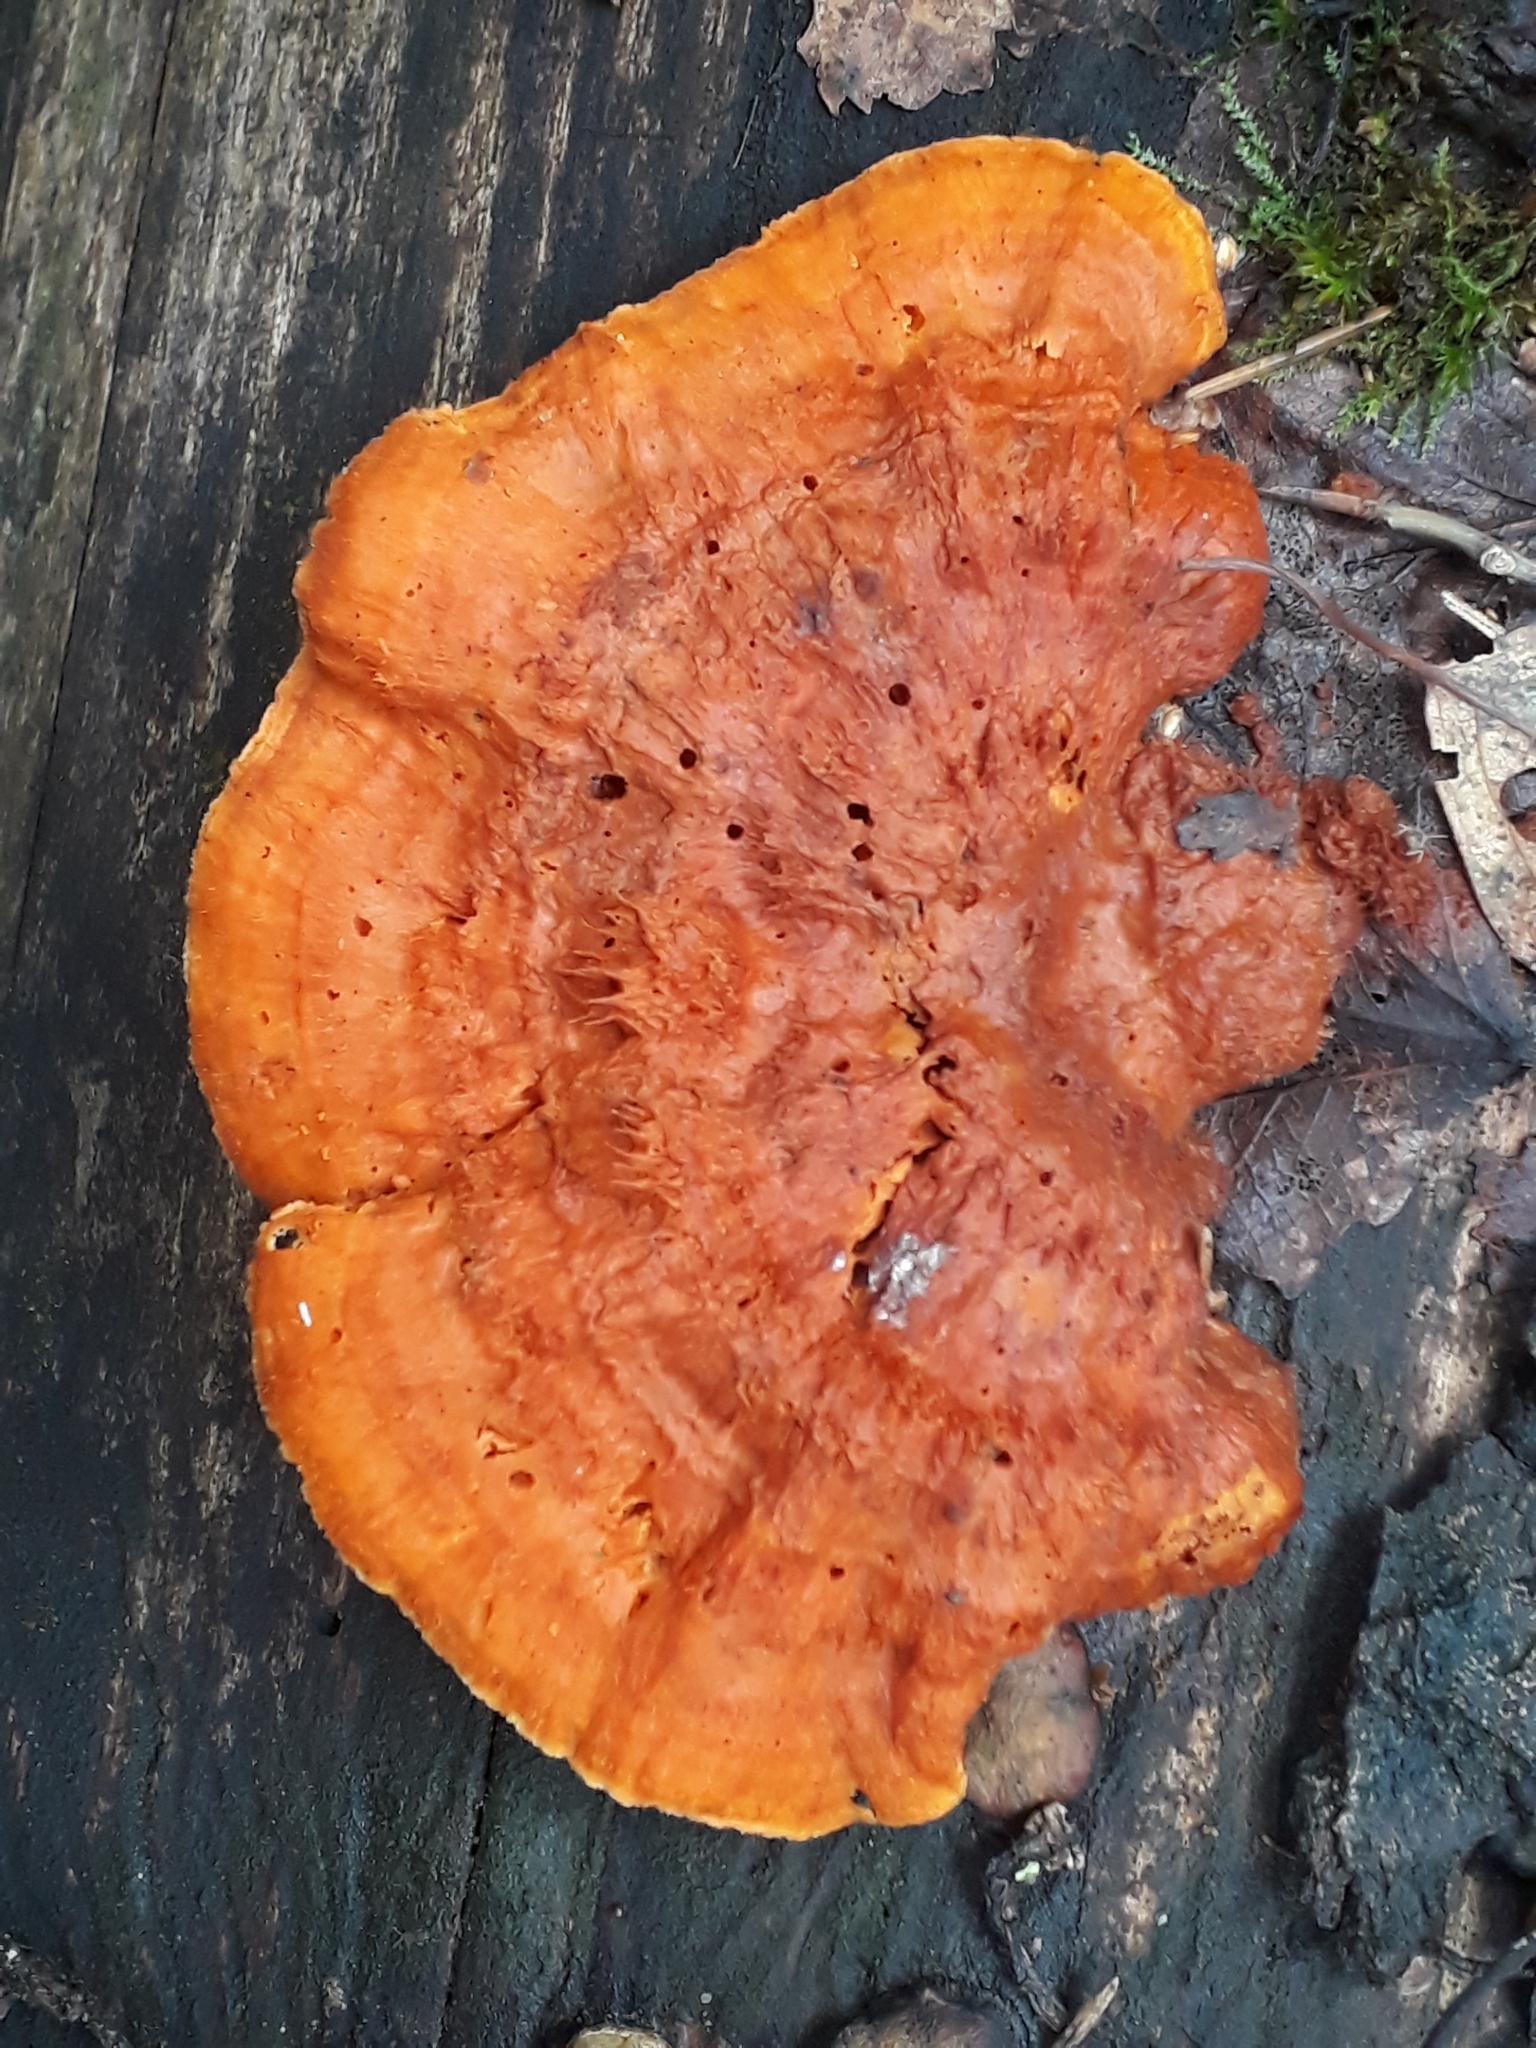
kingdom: Fungi
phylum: Basidiomycota
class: Agaricomycetes
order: Polyporales
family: Pycnoporellaceae
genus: Pycnoporellus
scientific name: Pycnoporellus fulgens
